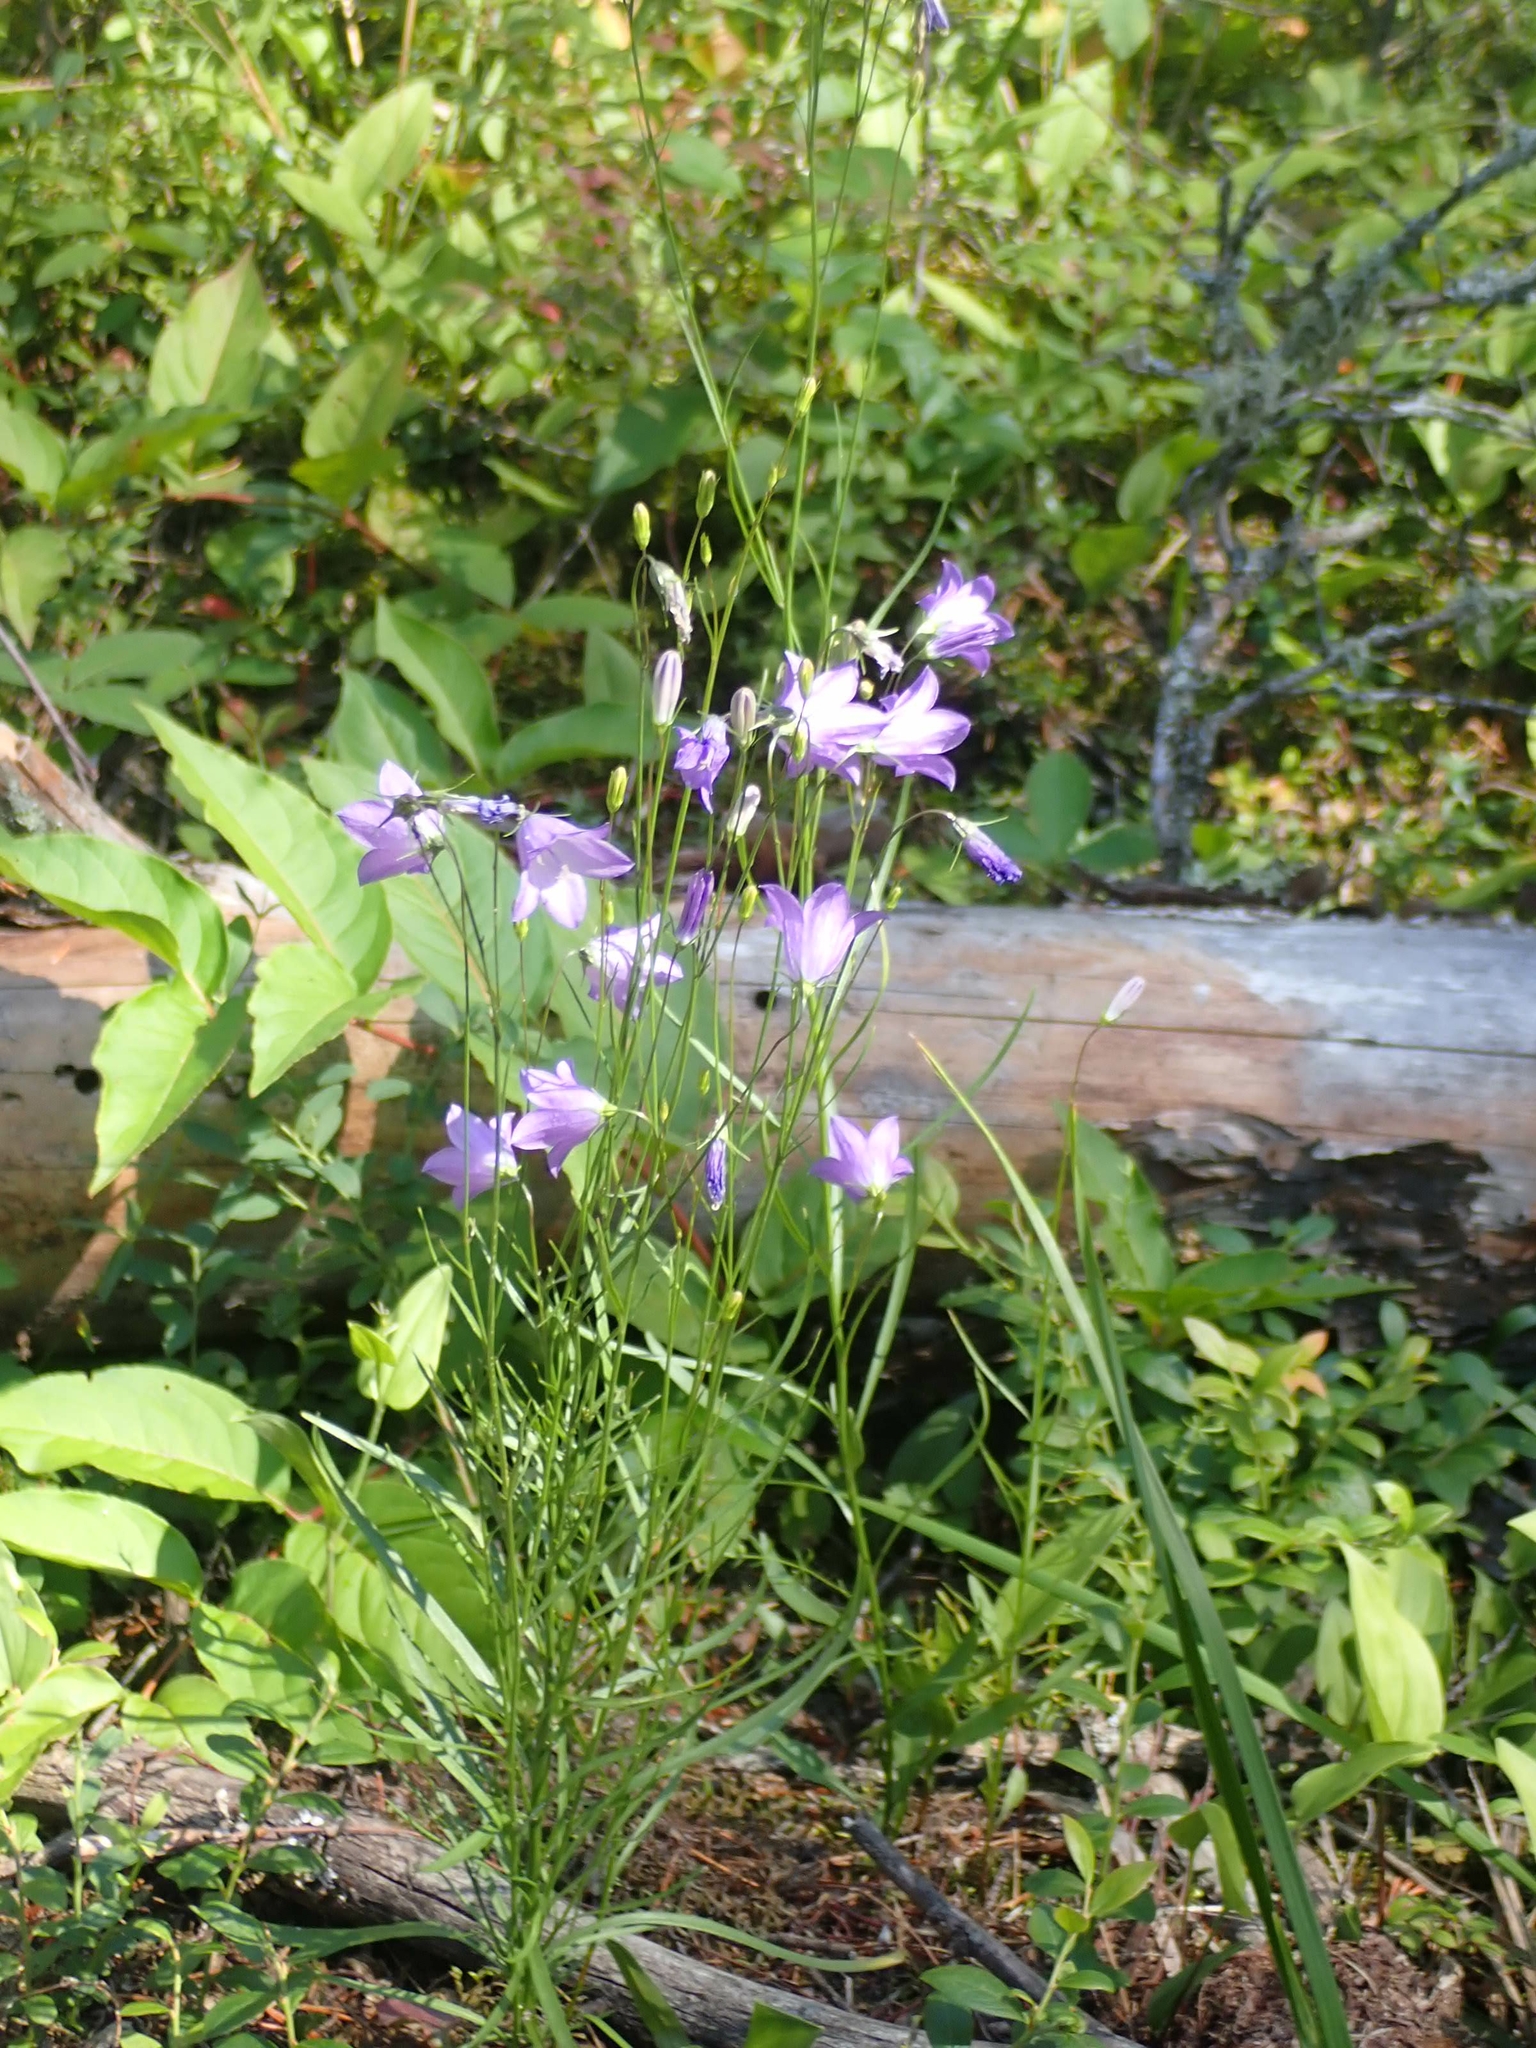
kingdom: Plantae
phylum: Tracheophyta
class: Magnoliopsida
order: Asterales
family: Campanulaceae
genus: Campanula
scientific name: Campanula petiolata
